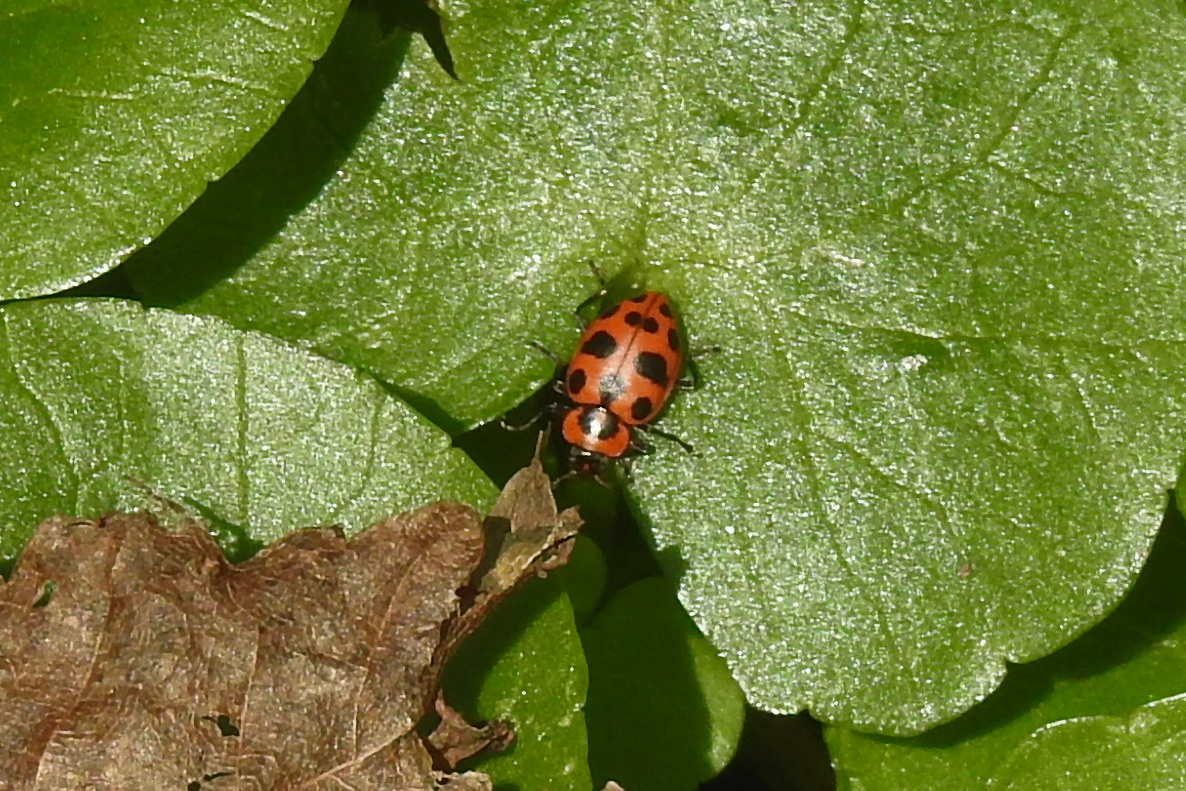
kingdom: Animalia
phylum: Arthropoda
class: Insecta
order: Coleoptera
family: Coccinellidae
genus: Coleomegilla
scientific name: Coleomegilla maculata
